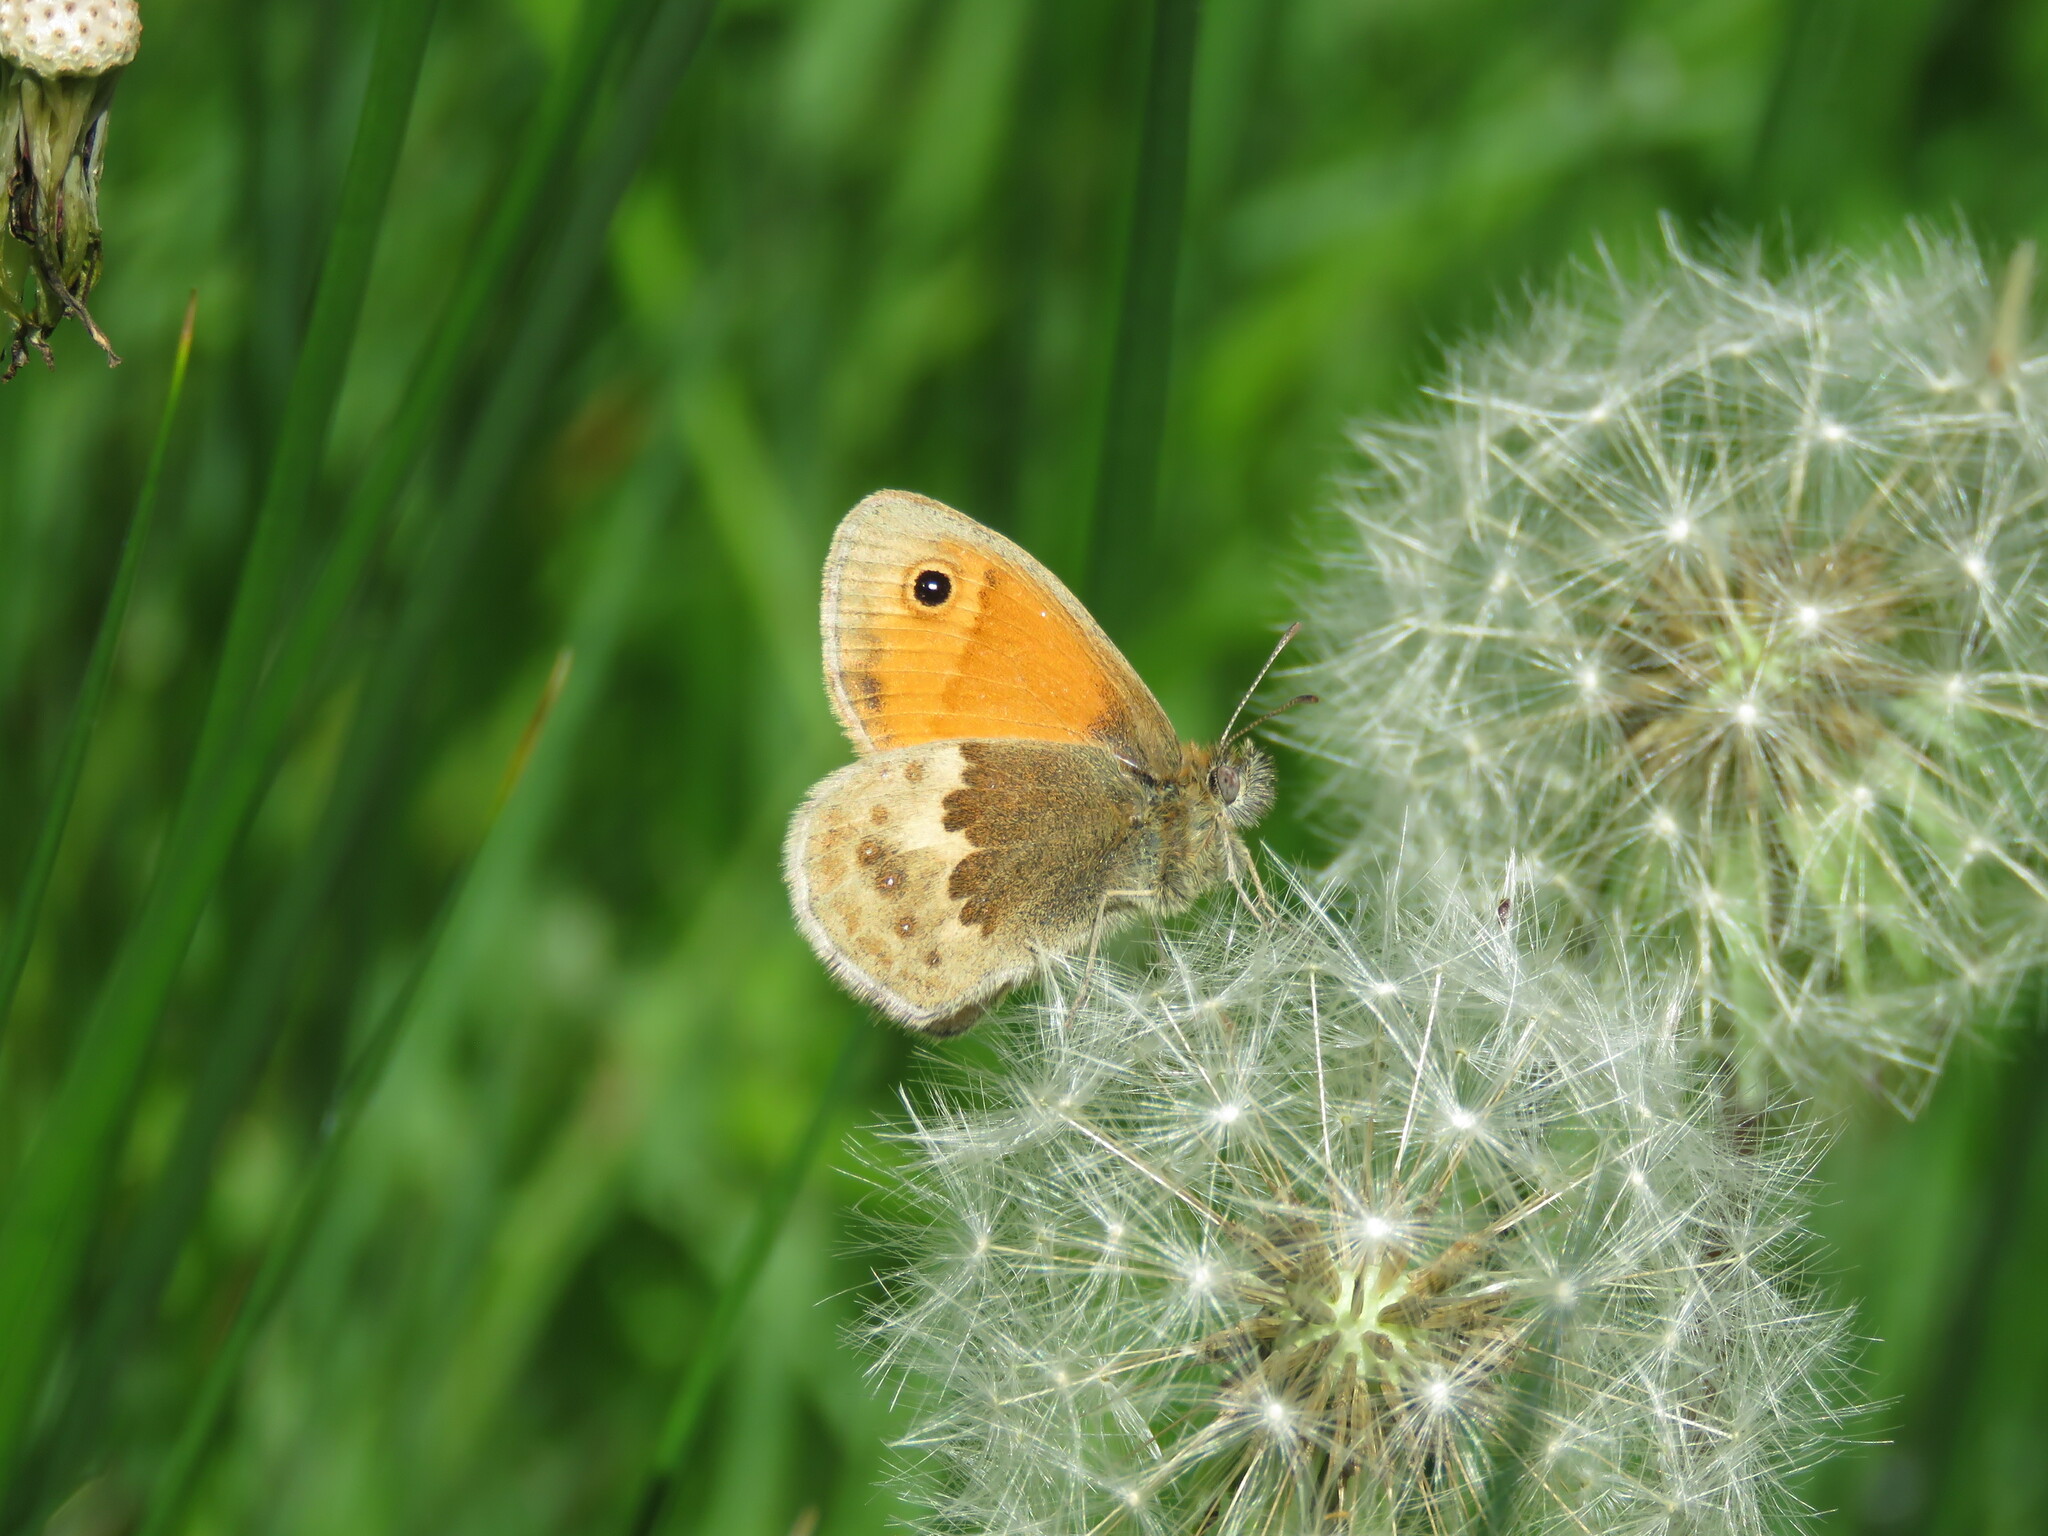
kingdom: Animalia
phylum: Arthropoda
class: Insecta
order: Lepidoptera
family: Nymphalidae
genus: Coenonympha
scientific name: Coenonympha pamphilus
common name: Small heath
